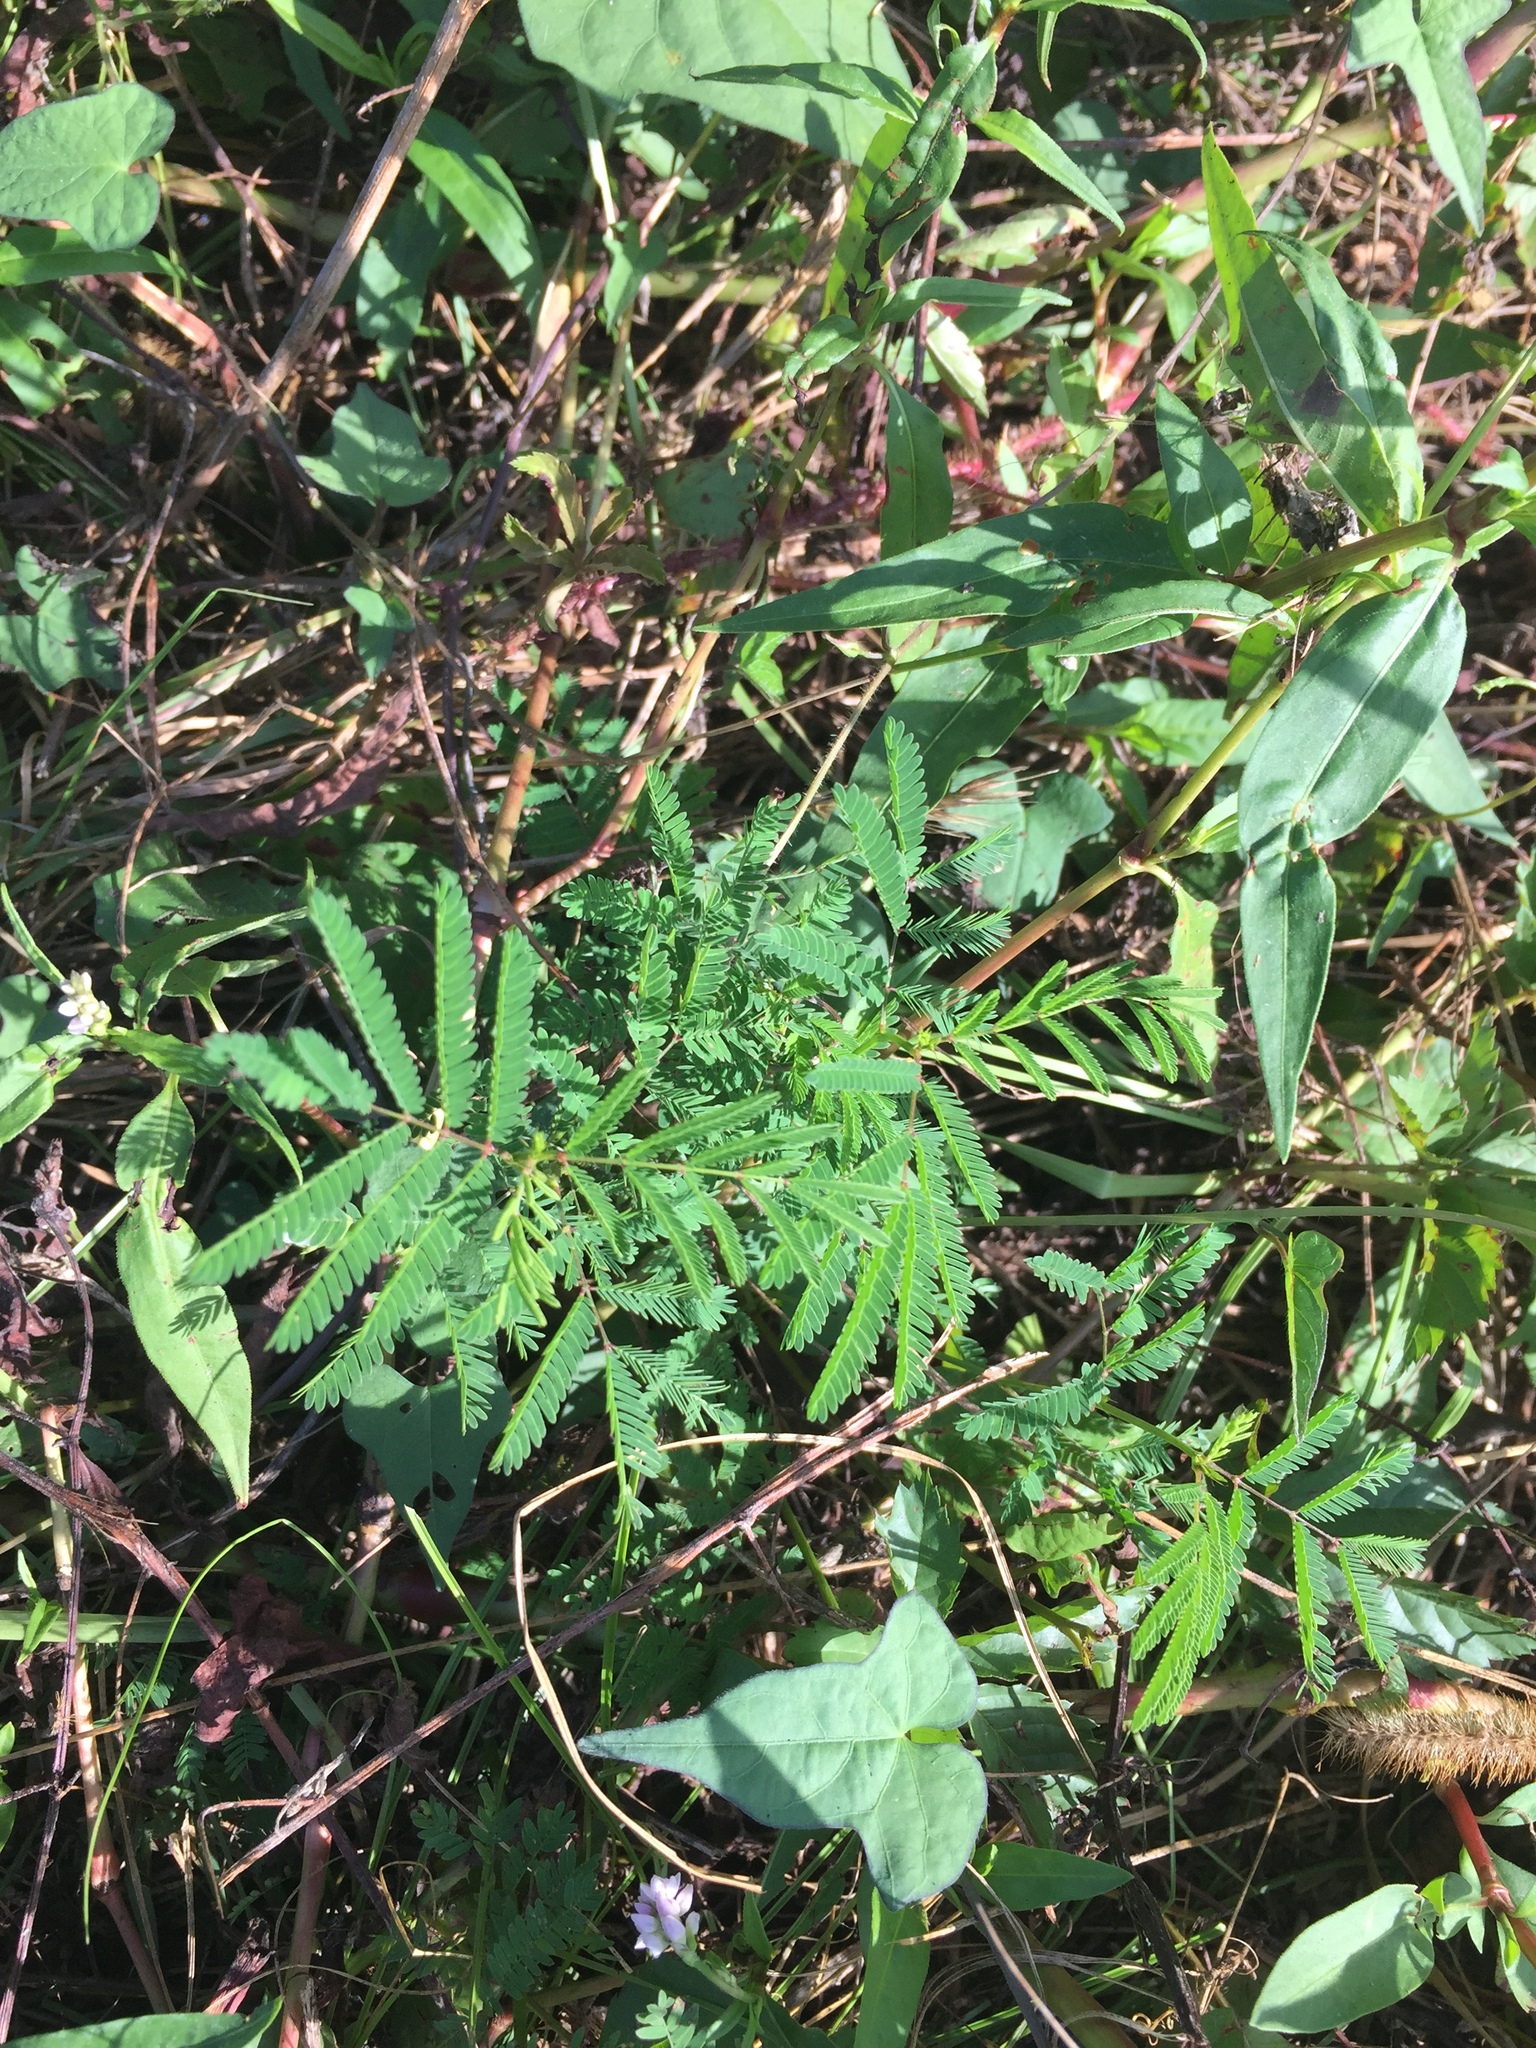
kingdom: Plantae
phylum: Tracheophyta
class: Magnoliopsida
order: Fabales
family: Fabaceae
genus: Desmanthus
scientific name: Desmanthus illinoensis
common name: Illinois bundle-flower
